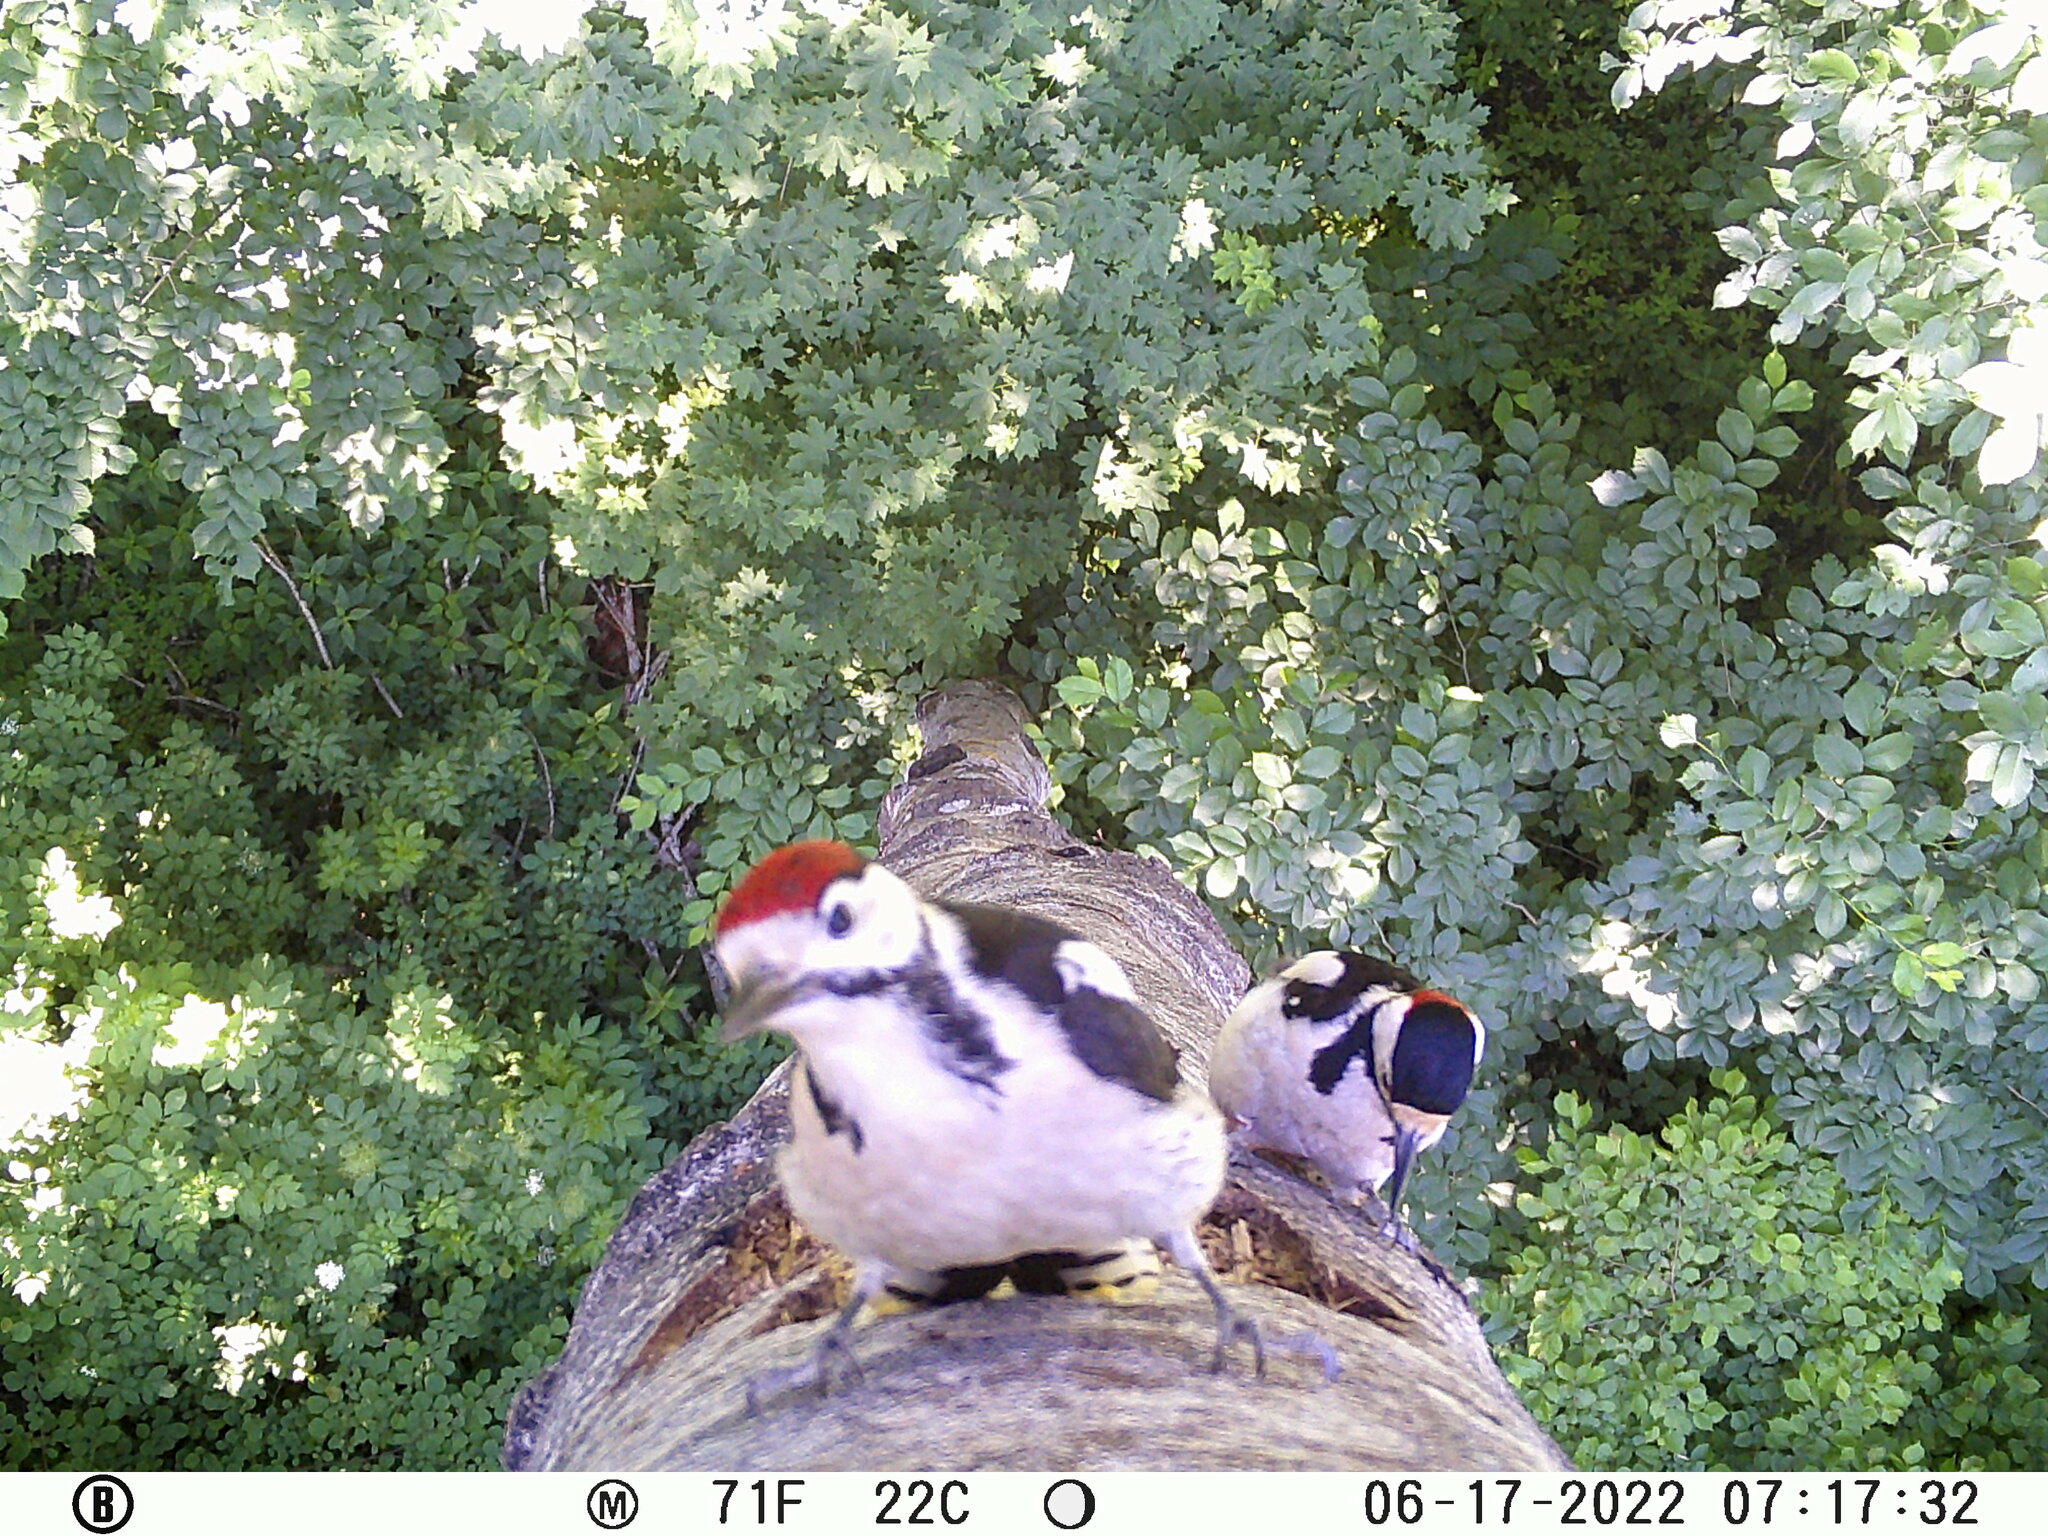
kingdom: Animalia
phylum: Chordata
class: Aves
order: Piciformes
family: Picidae
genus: Dendrocopos
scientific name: Dendrocopos major
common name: Great spotted woodpecker
